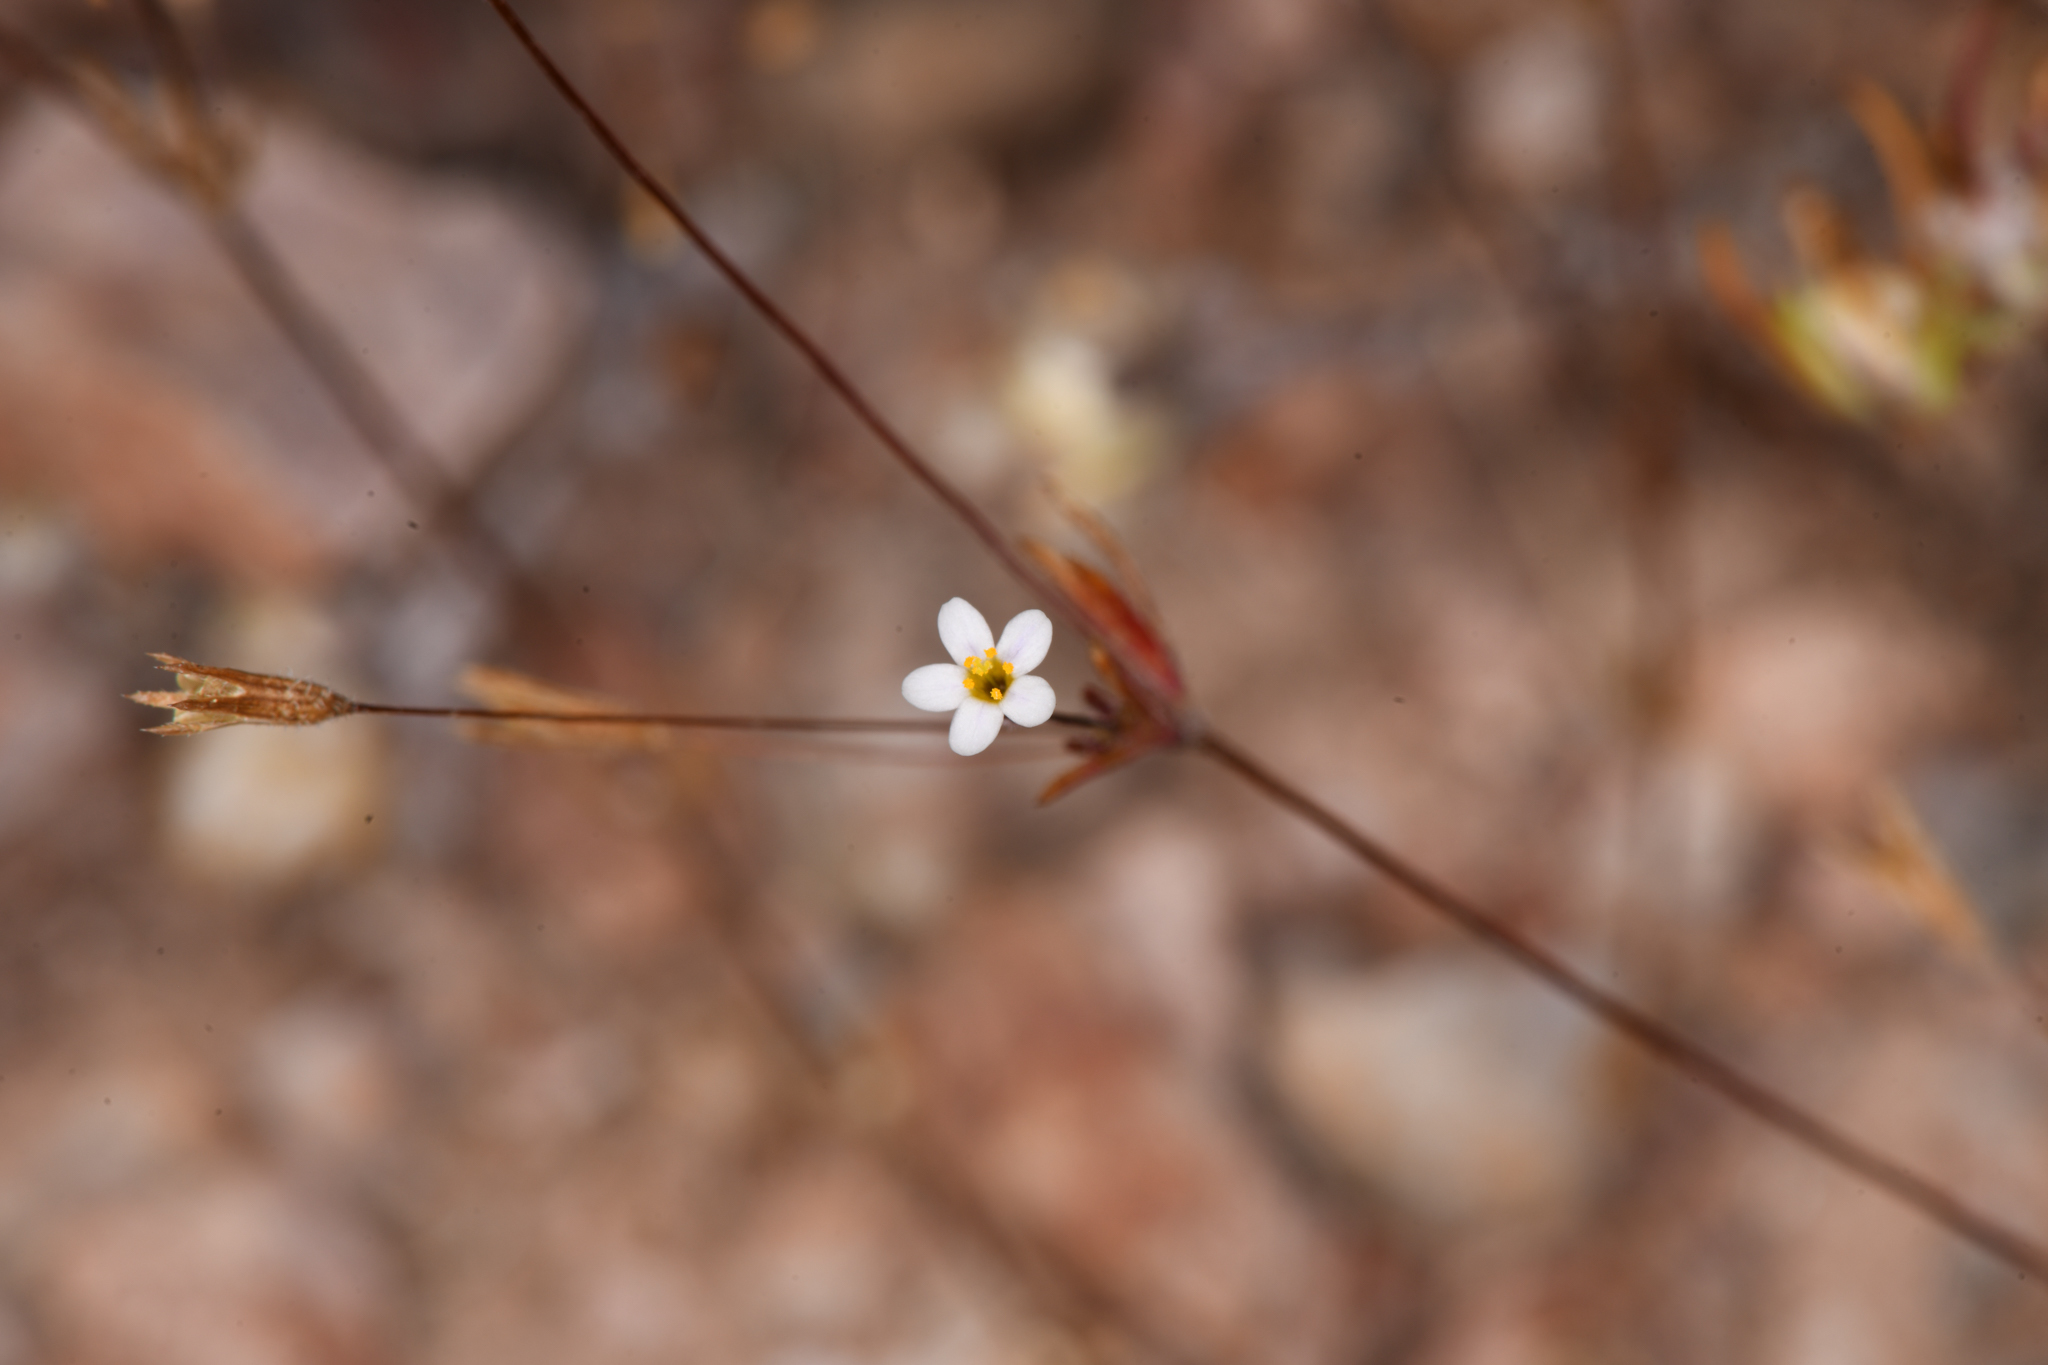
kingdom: Plantae
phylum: Tracheophyta
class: Magnoliopsida
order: Ericales
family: Polemoniaceae
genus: Leptosiphon
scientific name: Leptosiphon pygmaeus
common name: Pygmy linanthus
